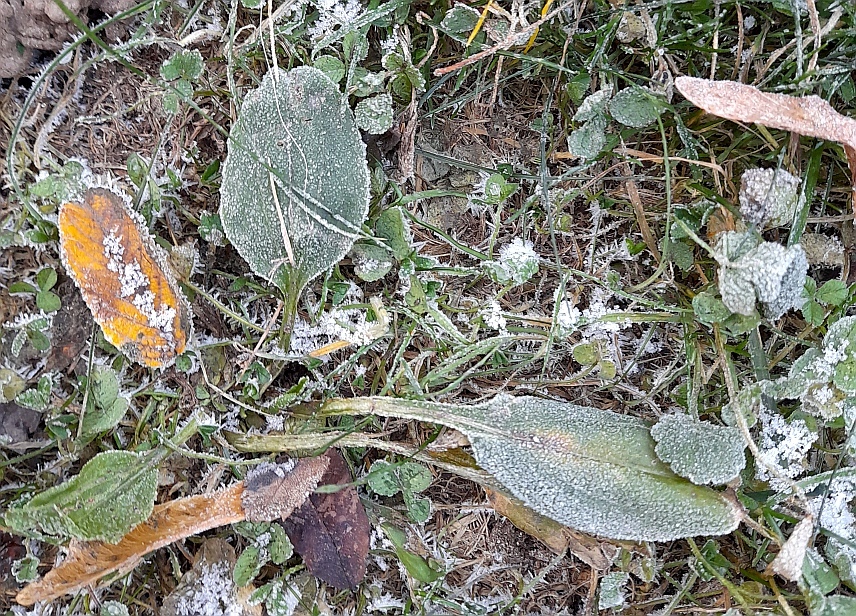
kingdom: Plantae
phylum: Tracheophyta
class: Magnoliopsida
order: Lamiales
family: Plantaginaceae
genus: Plantago
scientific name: Plantago major
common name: Common plantain
